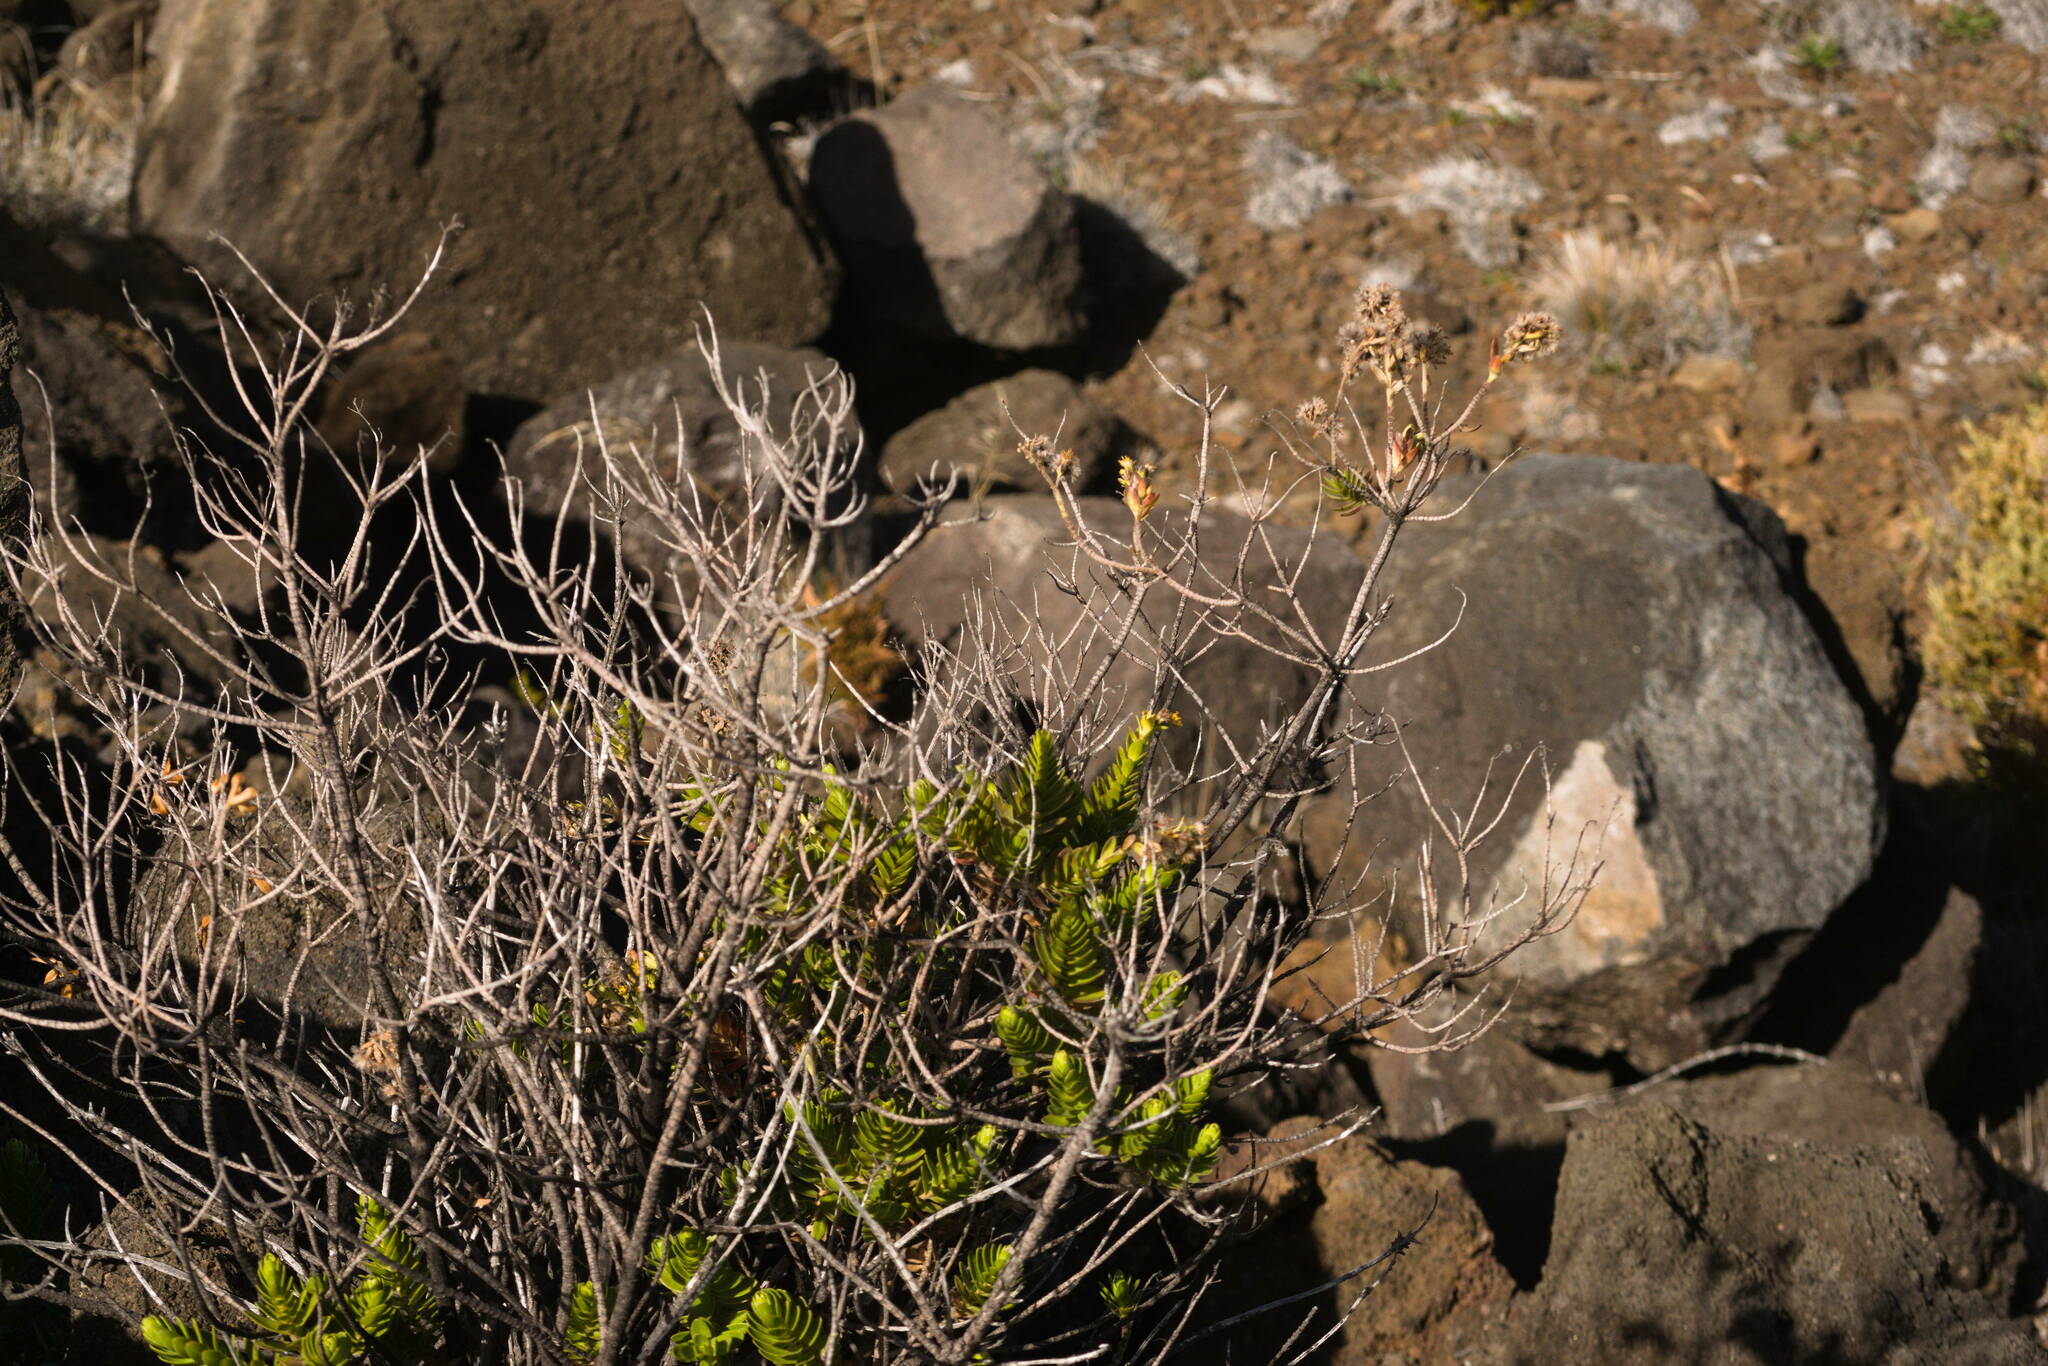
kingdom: Plantae
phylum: Tracheophyta
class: Magnoliopsida
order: Asterales
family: Asteraceae
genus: Dubautia
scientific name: Dubautia menziesii
